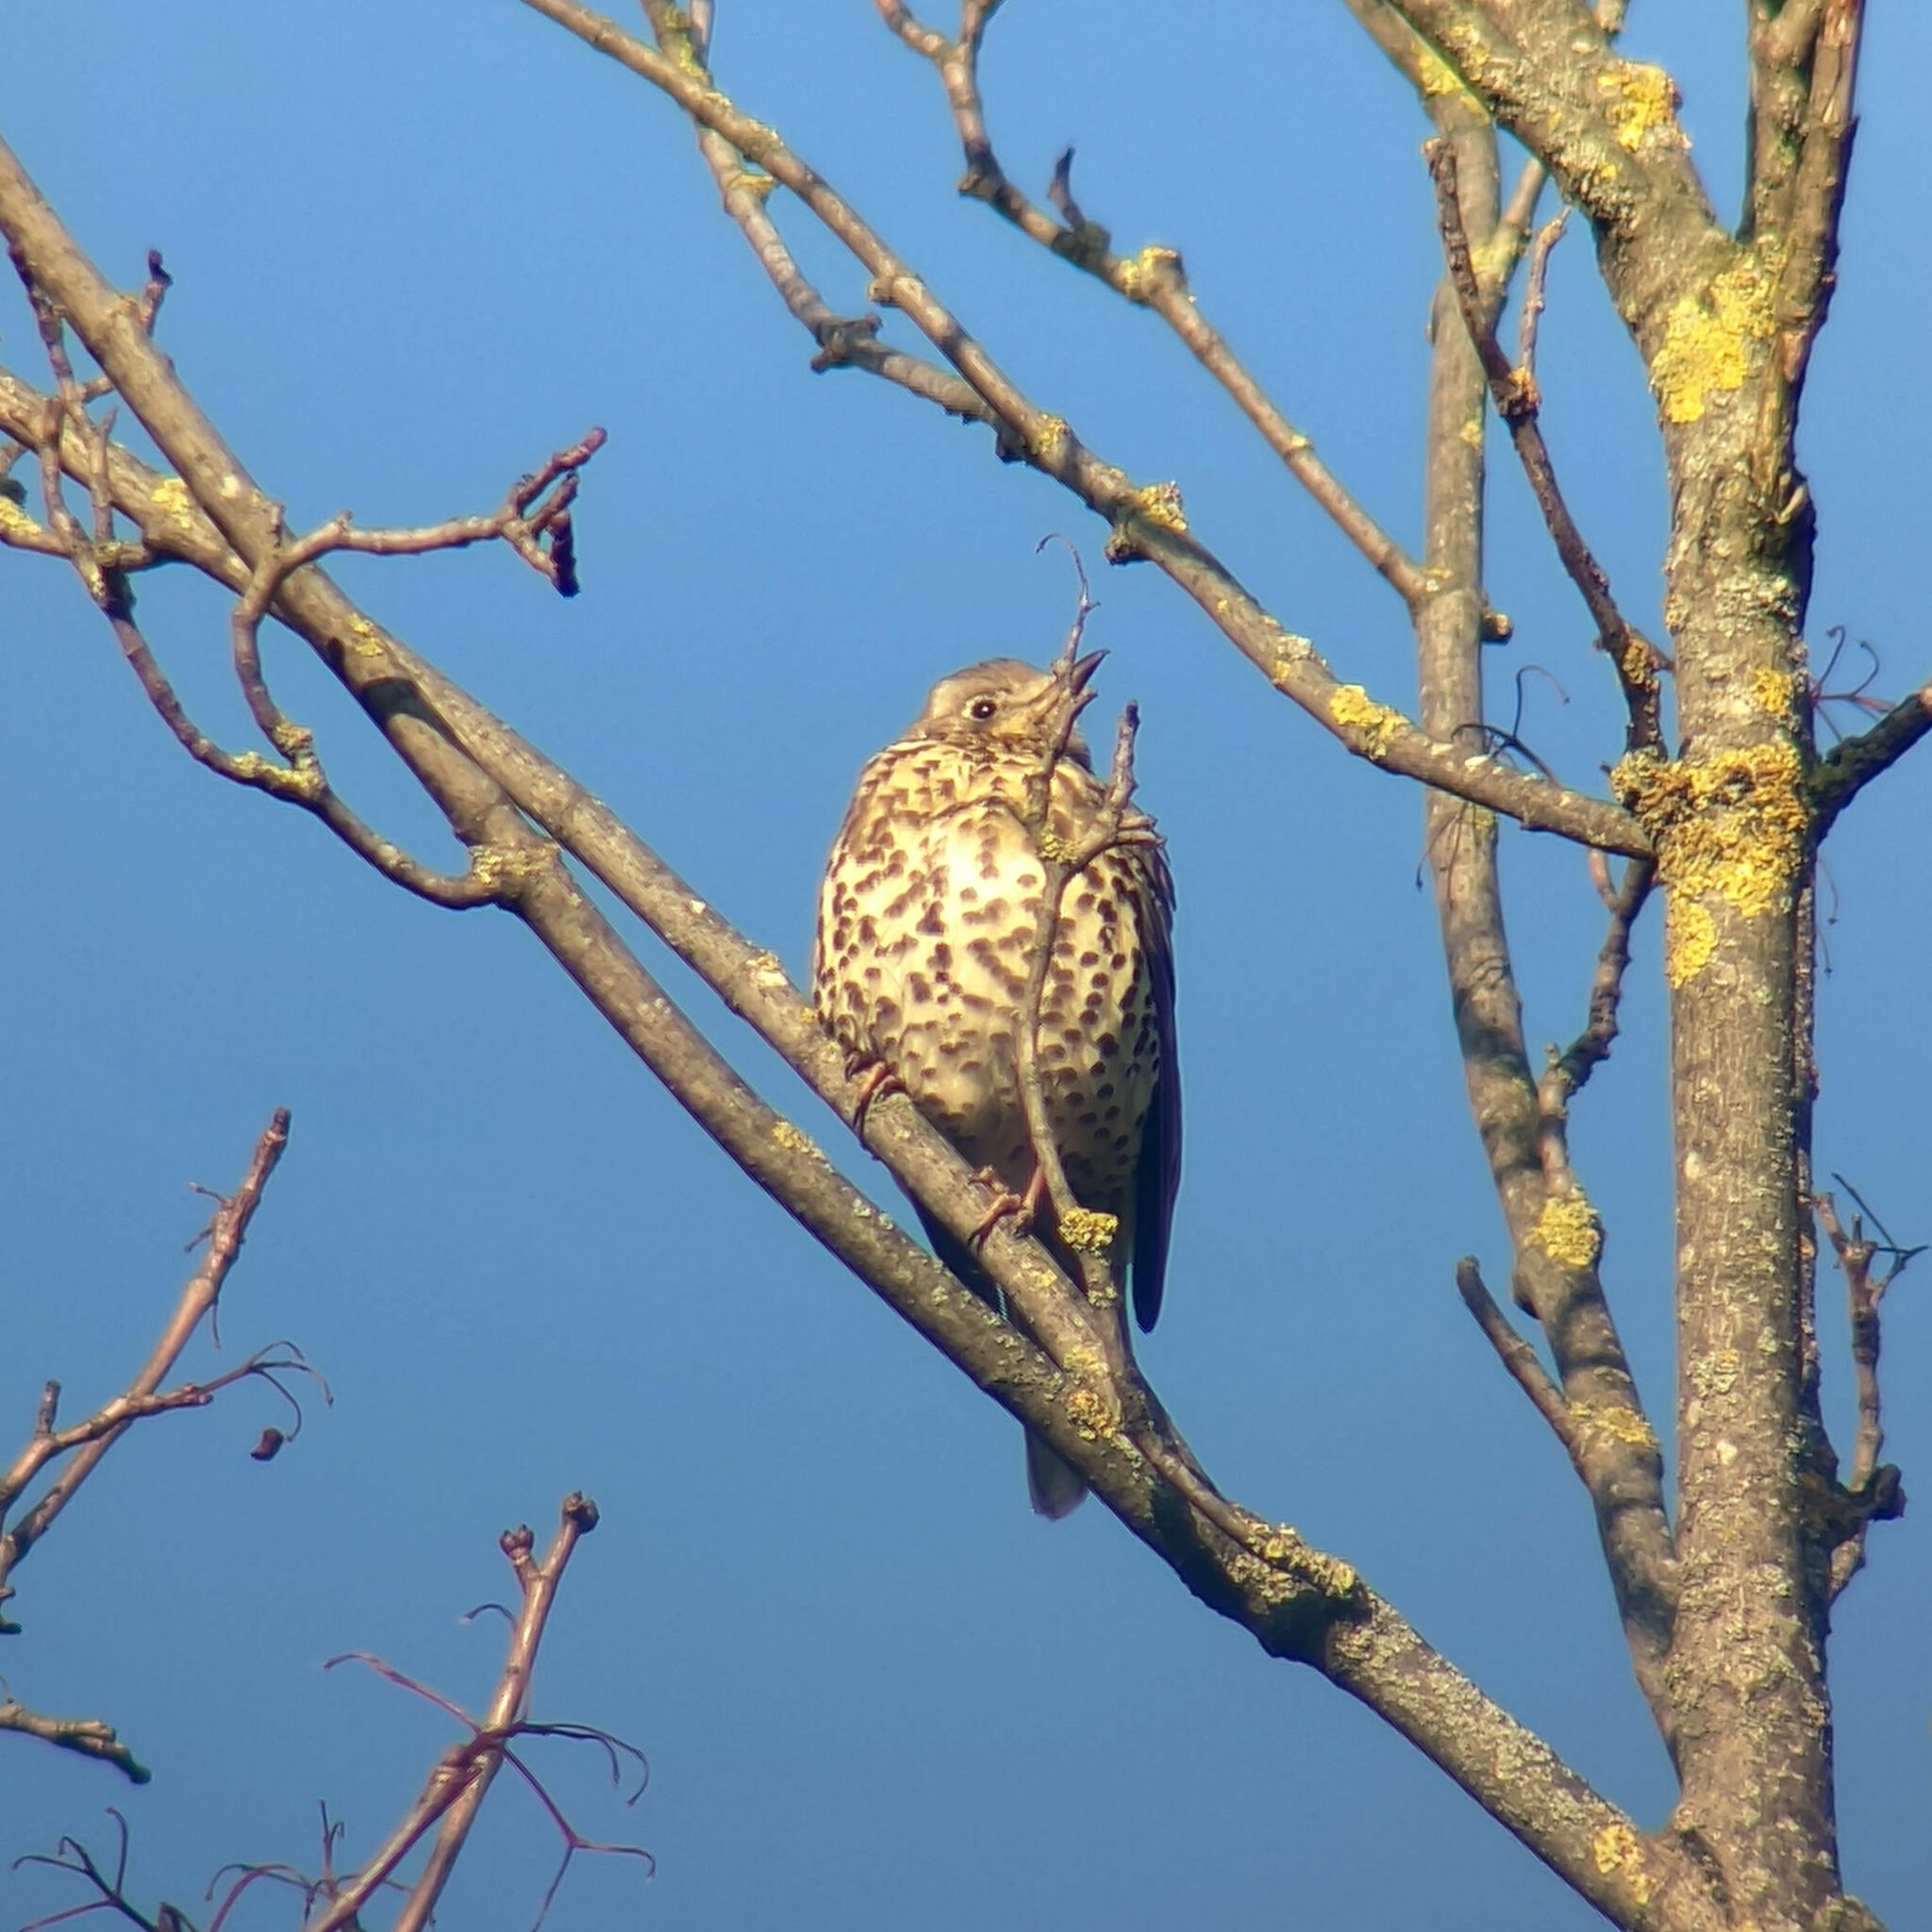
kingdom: Animalia
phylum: Chordata
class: Aves
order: Passeriformes
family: Turdidae
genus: Turdus
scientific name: Turdus viscivorus
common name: Mistle thrush
